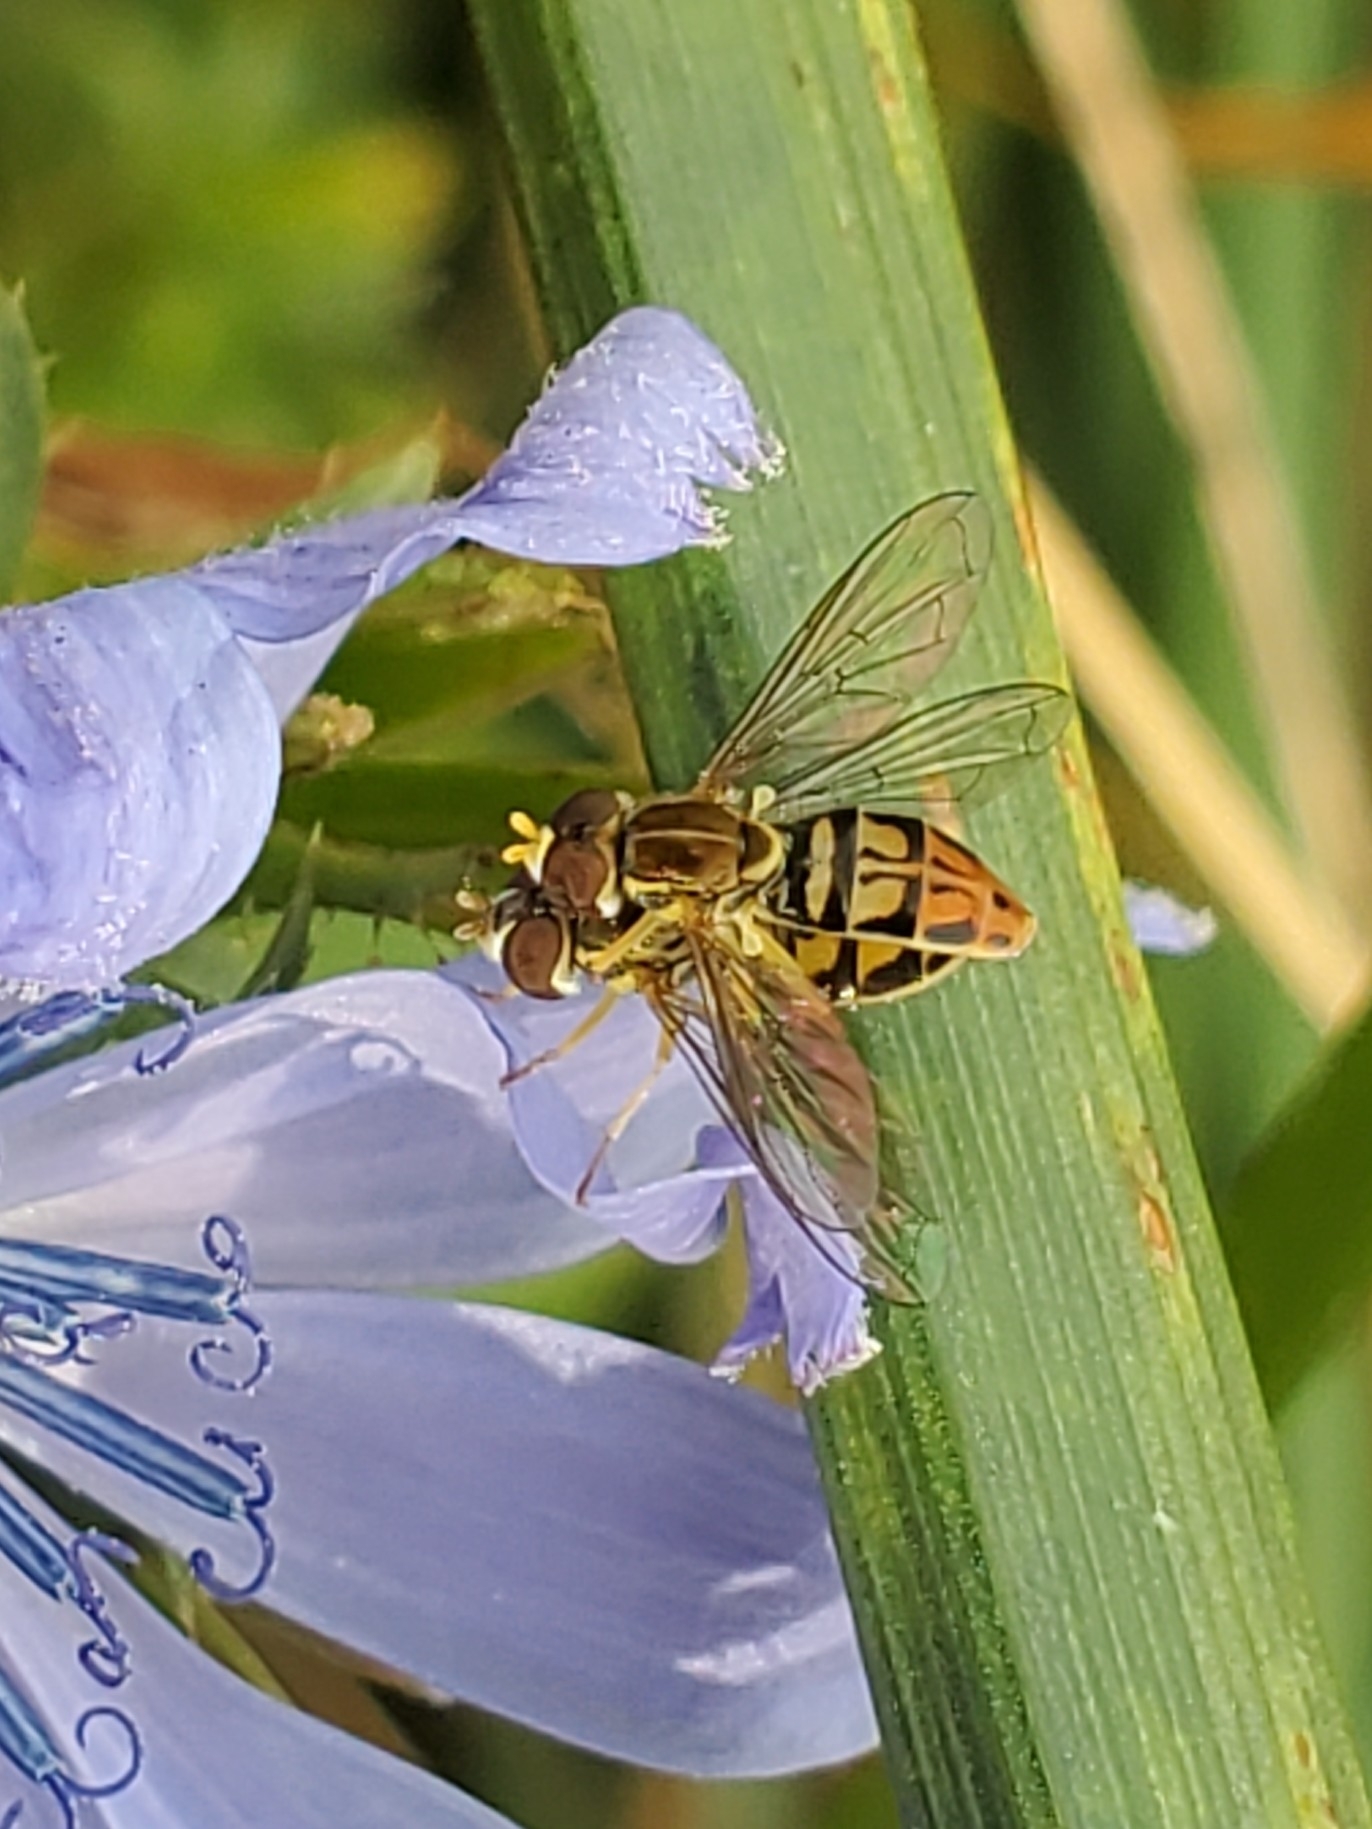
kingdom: Animalia
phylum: Arthropoda
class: Insecta
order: Diptera
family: Syrphidae
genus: Toxomerus
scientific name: Toxomerus marginatus
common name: Syrphid fly
